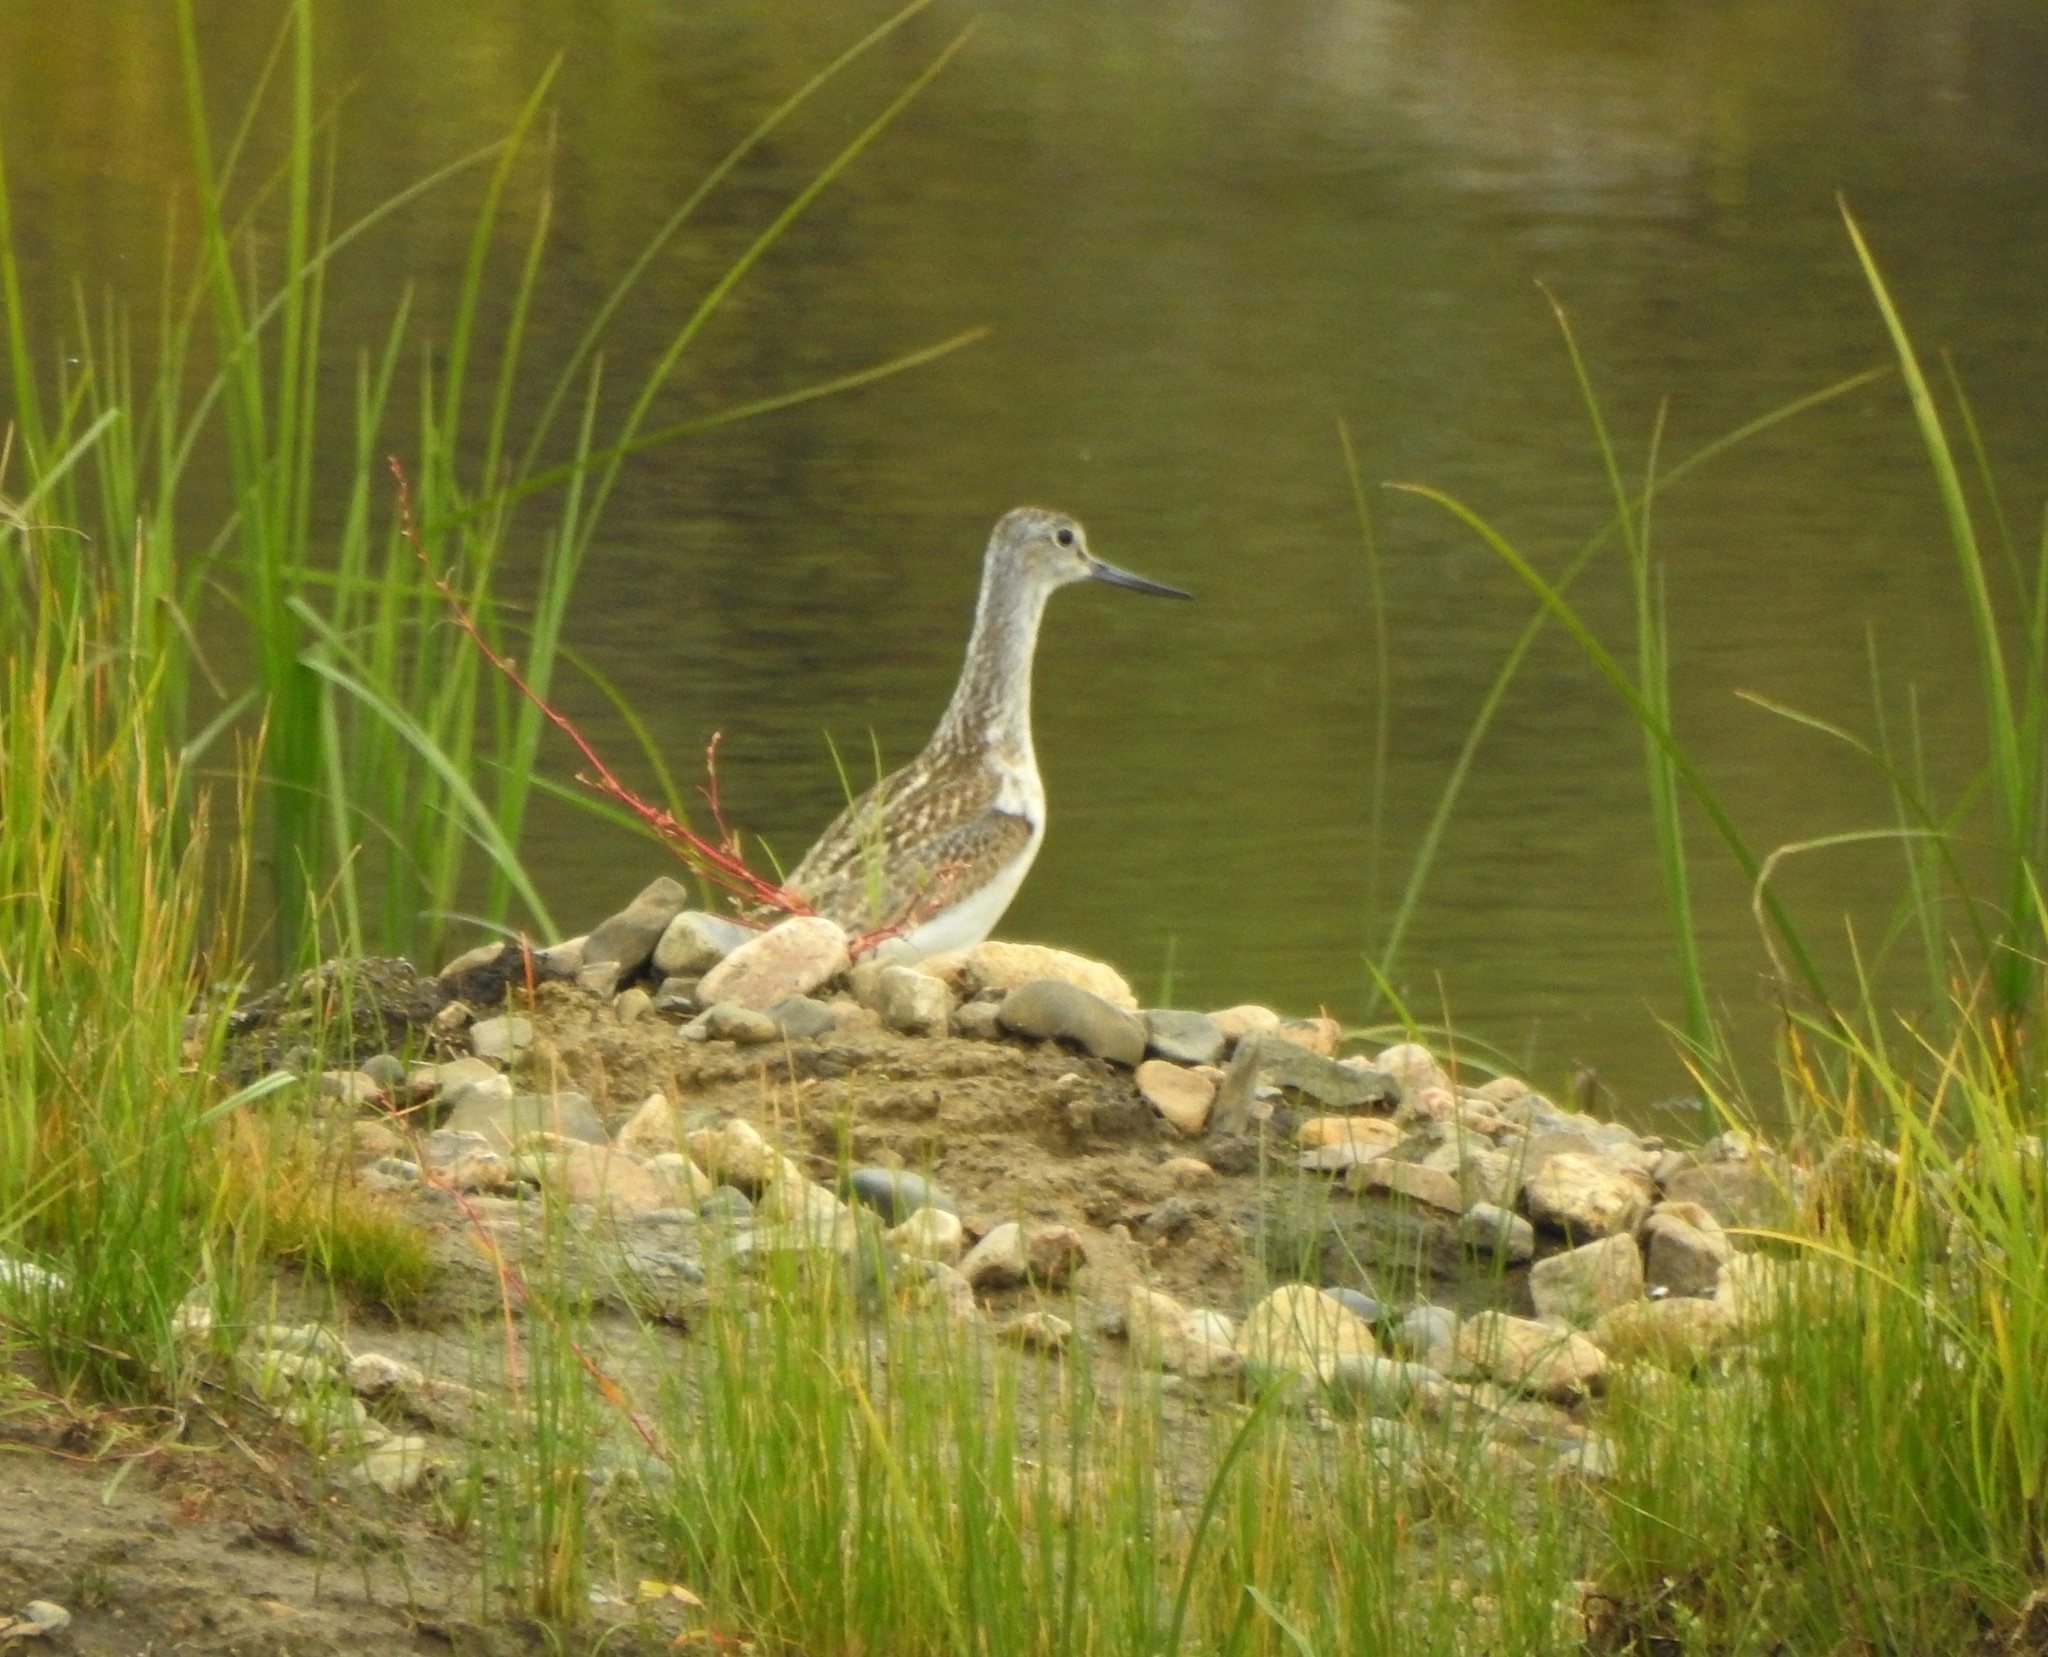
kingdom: Animalia
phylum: Chordata
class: Aves
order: Charadriiformes
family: Scolopacidae
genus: Tringa
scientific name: Tringa nebularia
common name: Common greenshank
